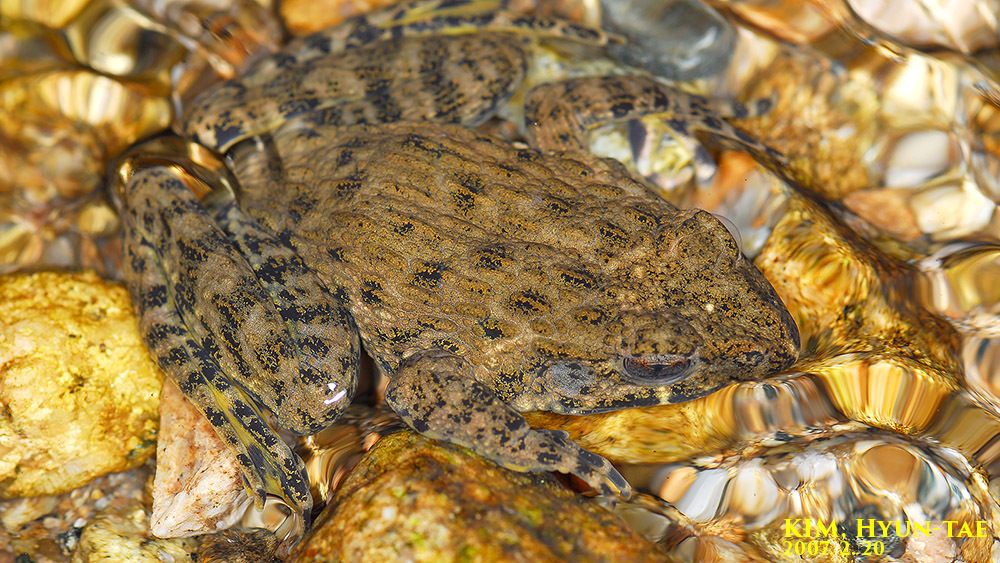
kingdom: Animalia
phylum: Chordata
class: Amphibia
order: Anura
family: Ranidae
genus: Glandirana
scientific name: Glandirana emeljanovi
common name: Northeast china rough-skinned frog
